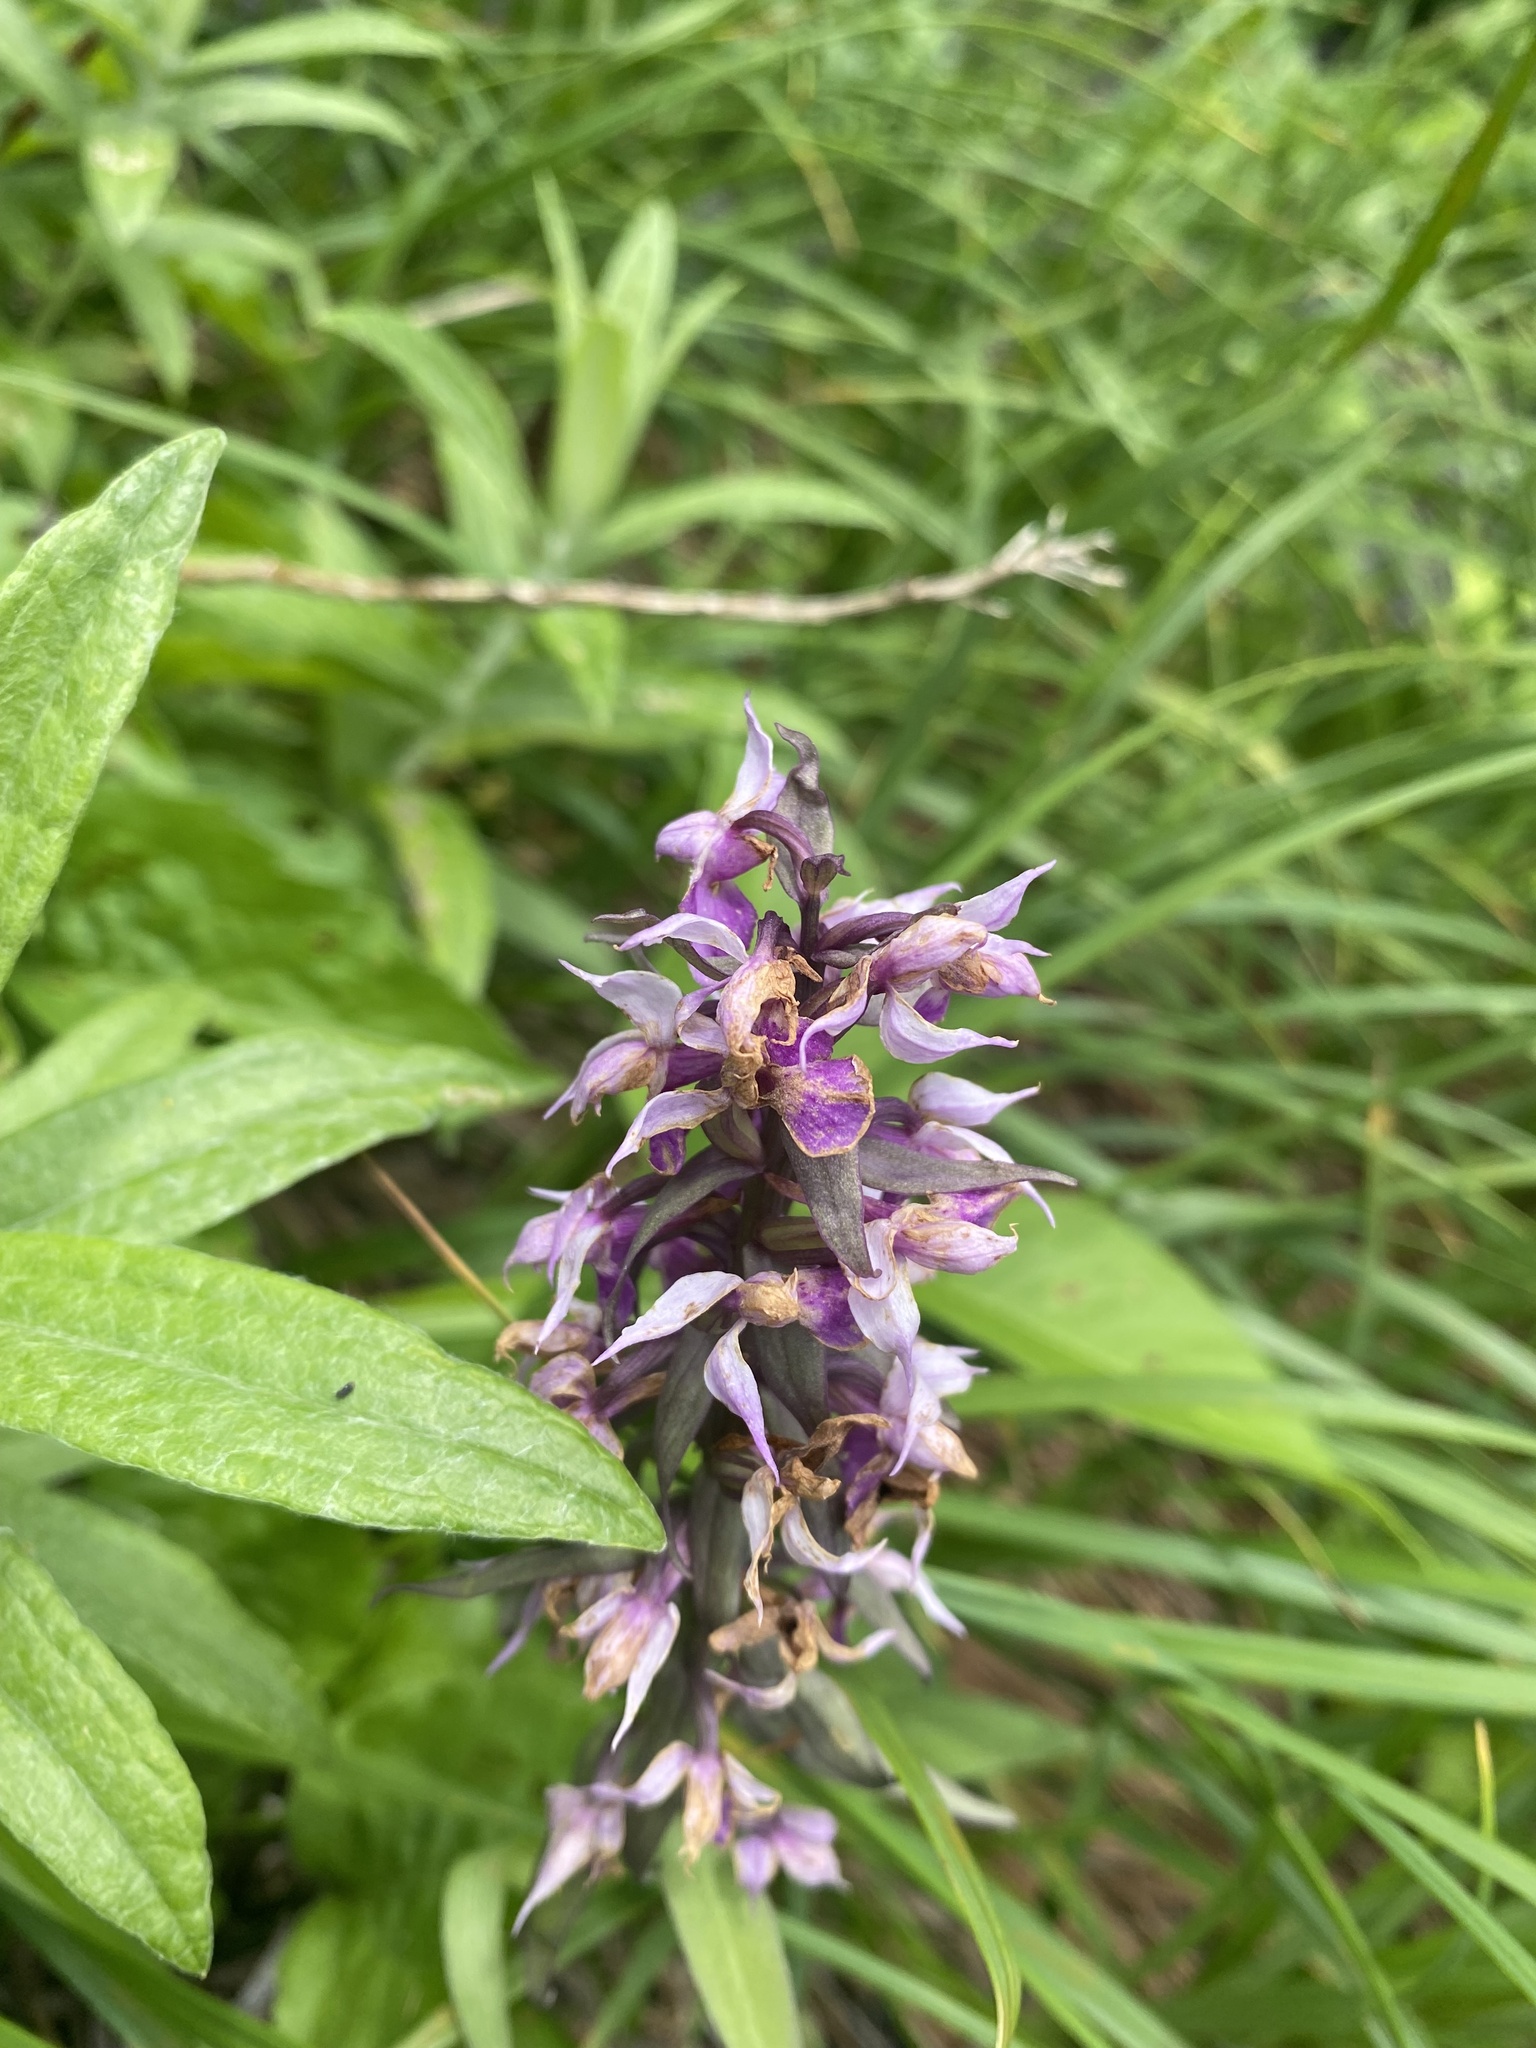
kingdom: Plantae
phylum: Tracheophyta
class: Liliopsida
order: Asparagales
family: Orchidaceae
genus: Dactylorhiza
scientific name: Dactylorhiza aristata
